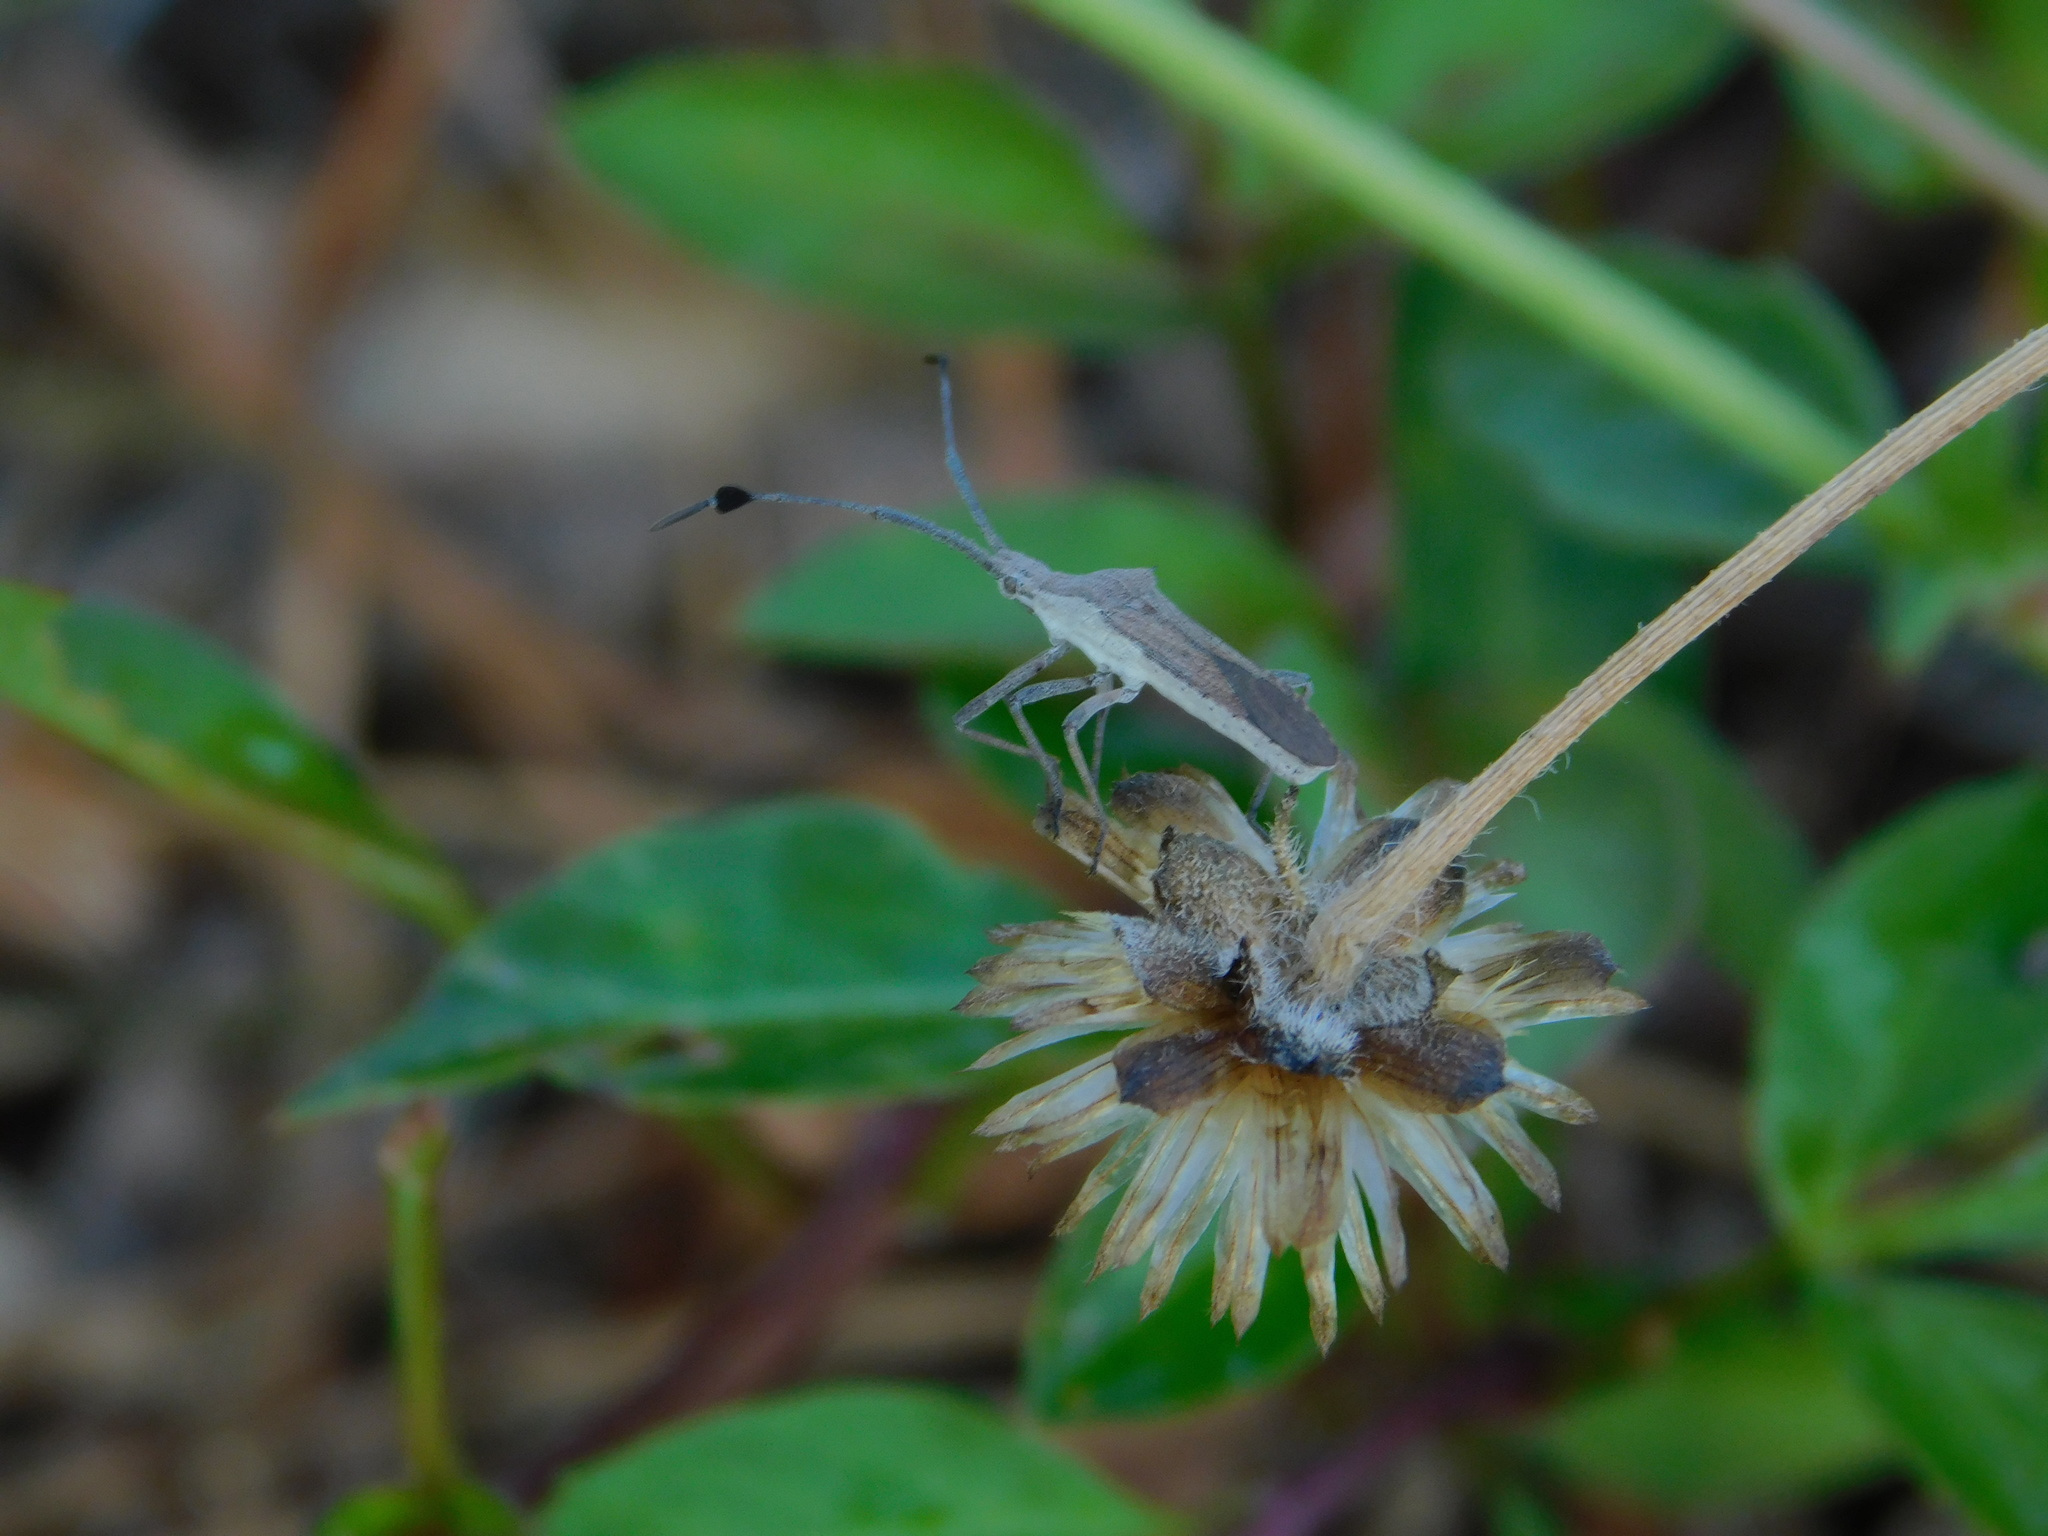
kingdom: Animalia
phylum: Arthropoda
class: Insecta
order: Hemiptera
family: Coreidae
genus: Chariesterus
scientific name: Chariesterus antennator
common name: Flat horned coreid
